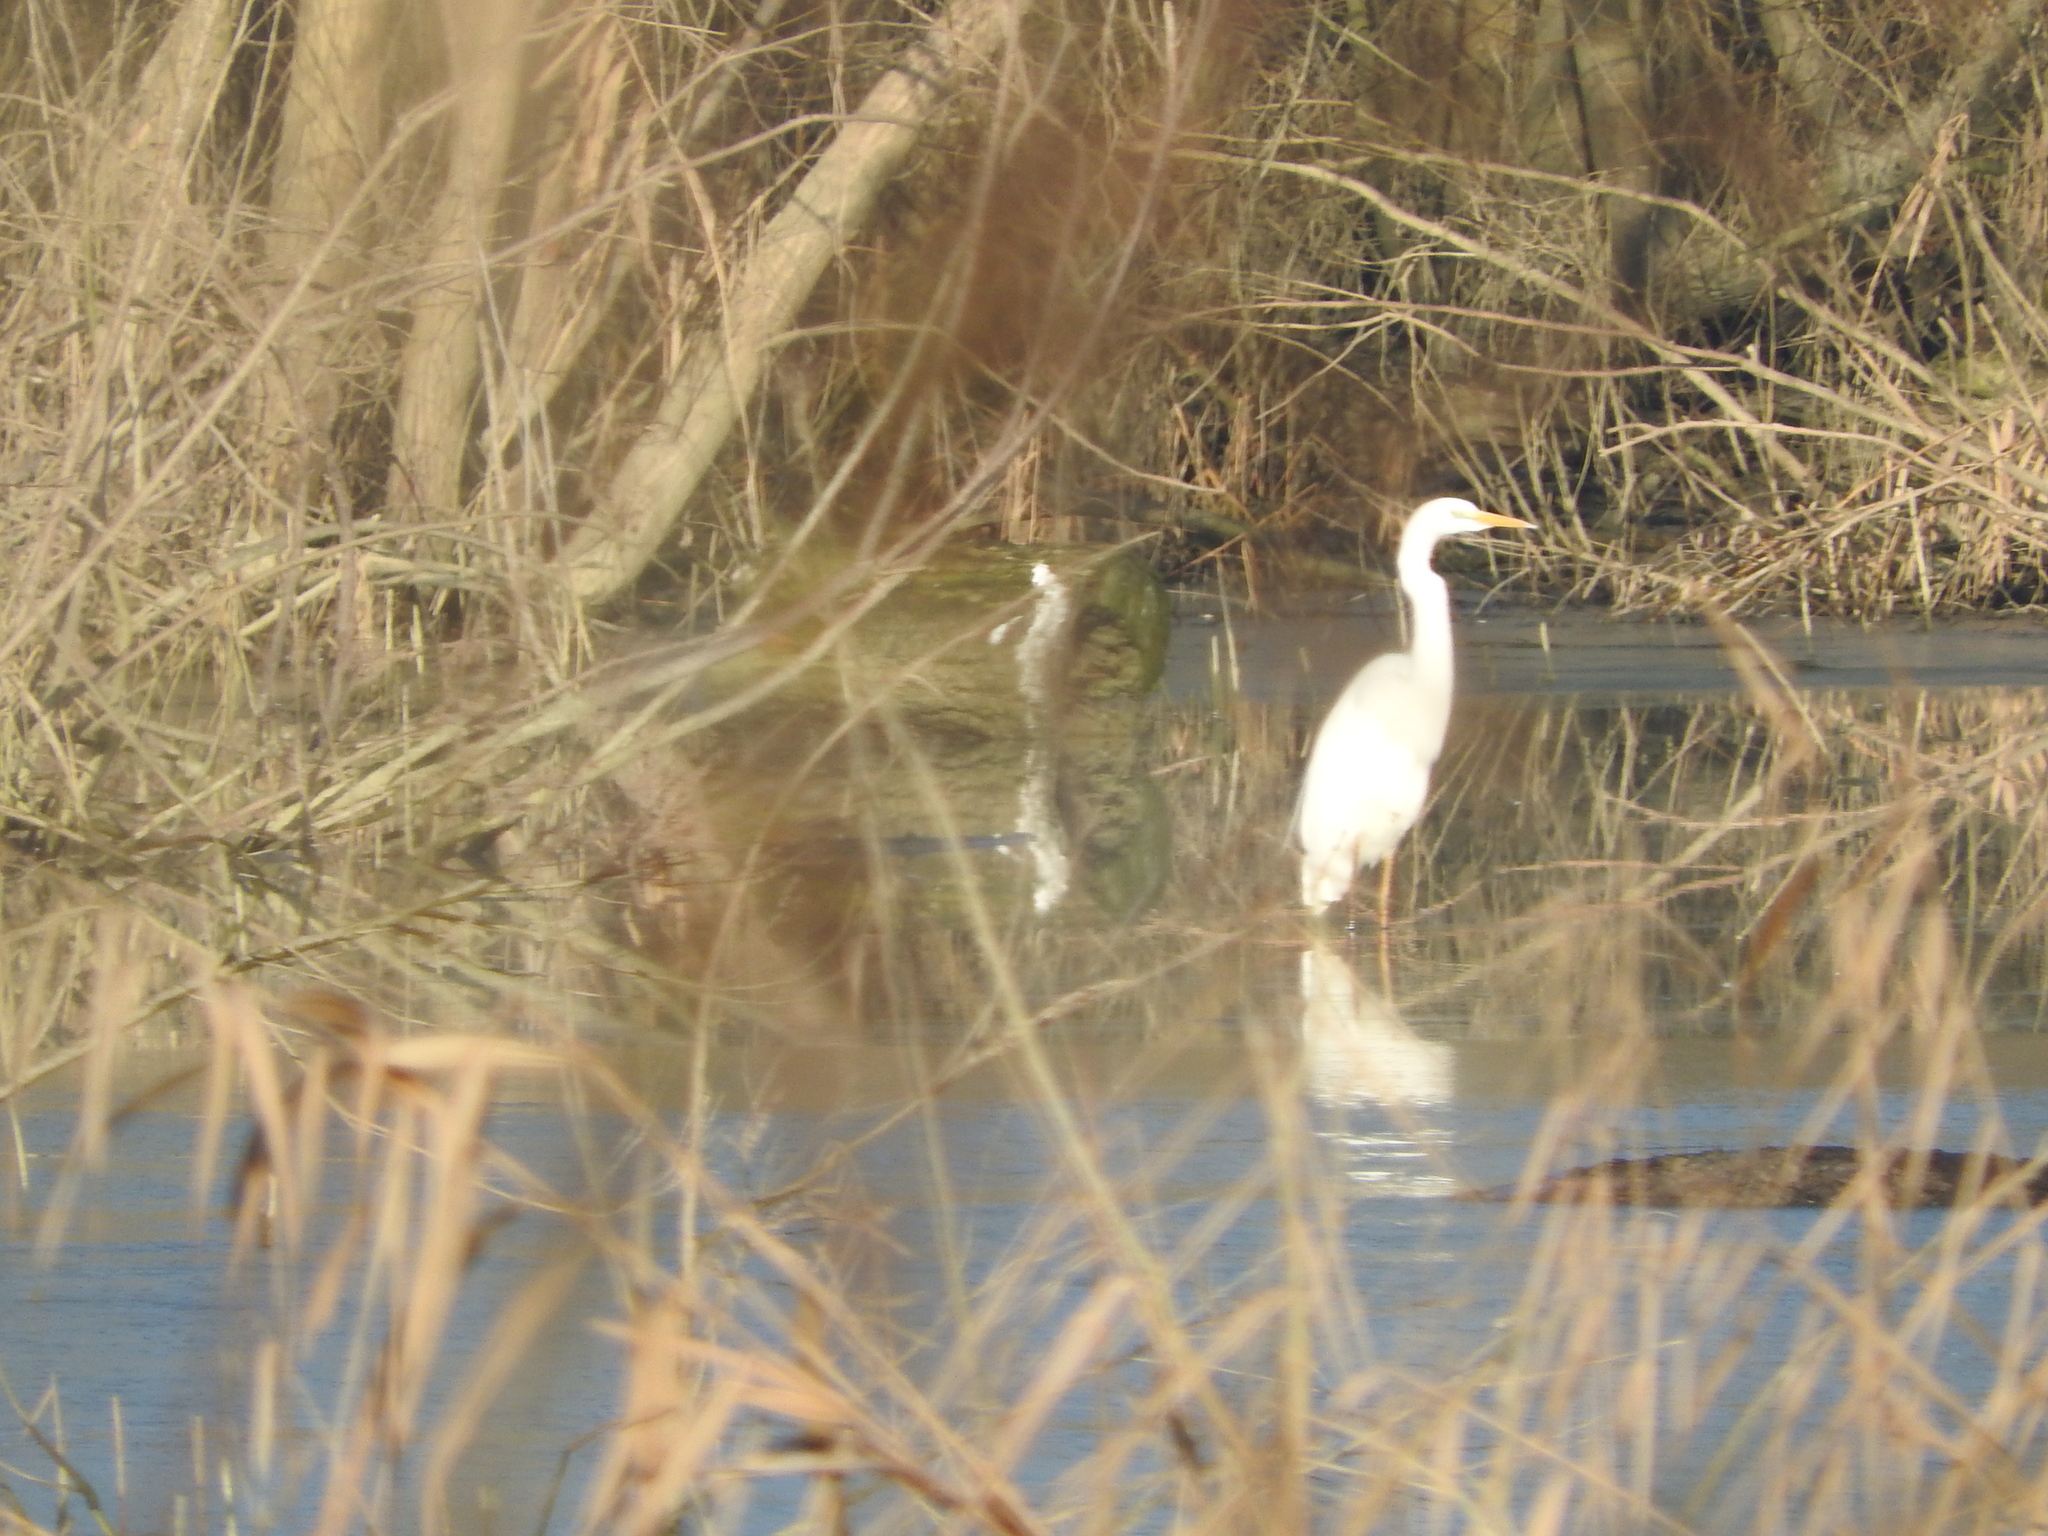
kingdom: Animalia
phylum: Chordata
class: Aves
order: Pelecaniformes
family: Ardeidae
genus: Ardea
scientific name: Ardea alba
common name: Great egret
